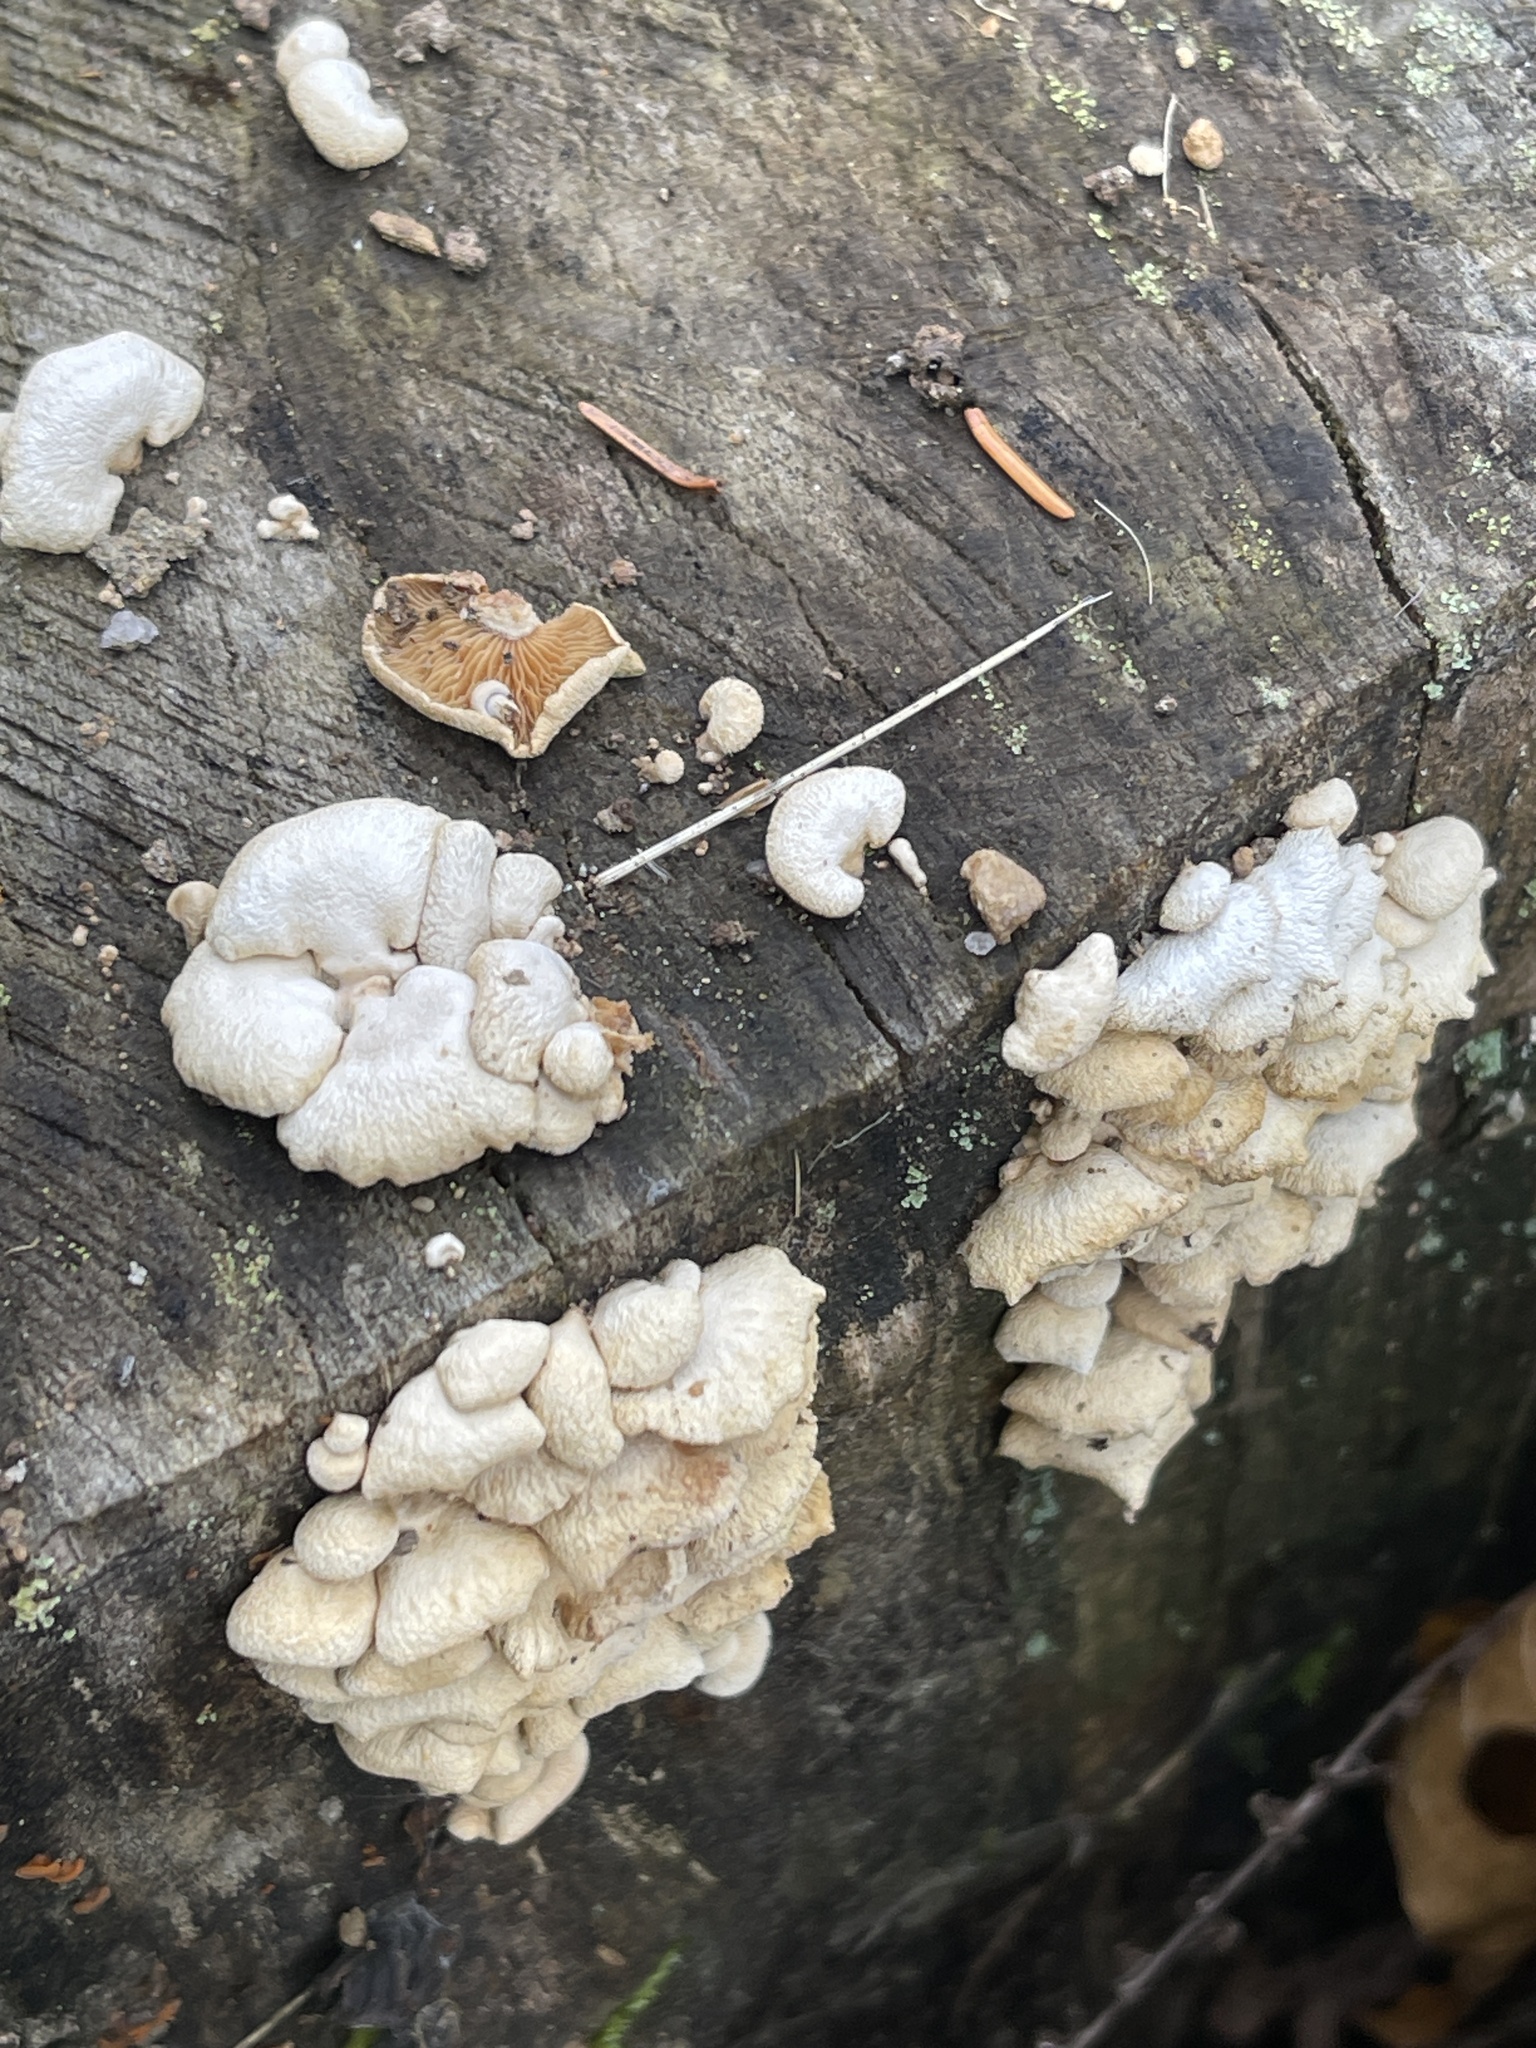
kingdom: Fungi
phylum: Basidiomycota
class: Agaricomycetes
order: Agaricales
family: Mycenaceae
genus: Panellus
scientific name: Panellus stipticus
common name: Bitter oysterling
